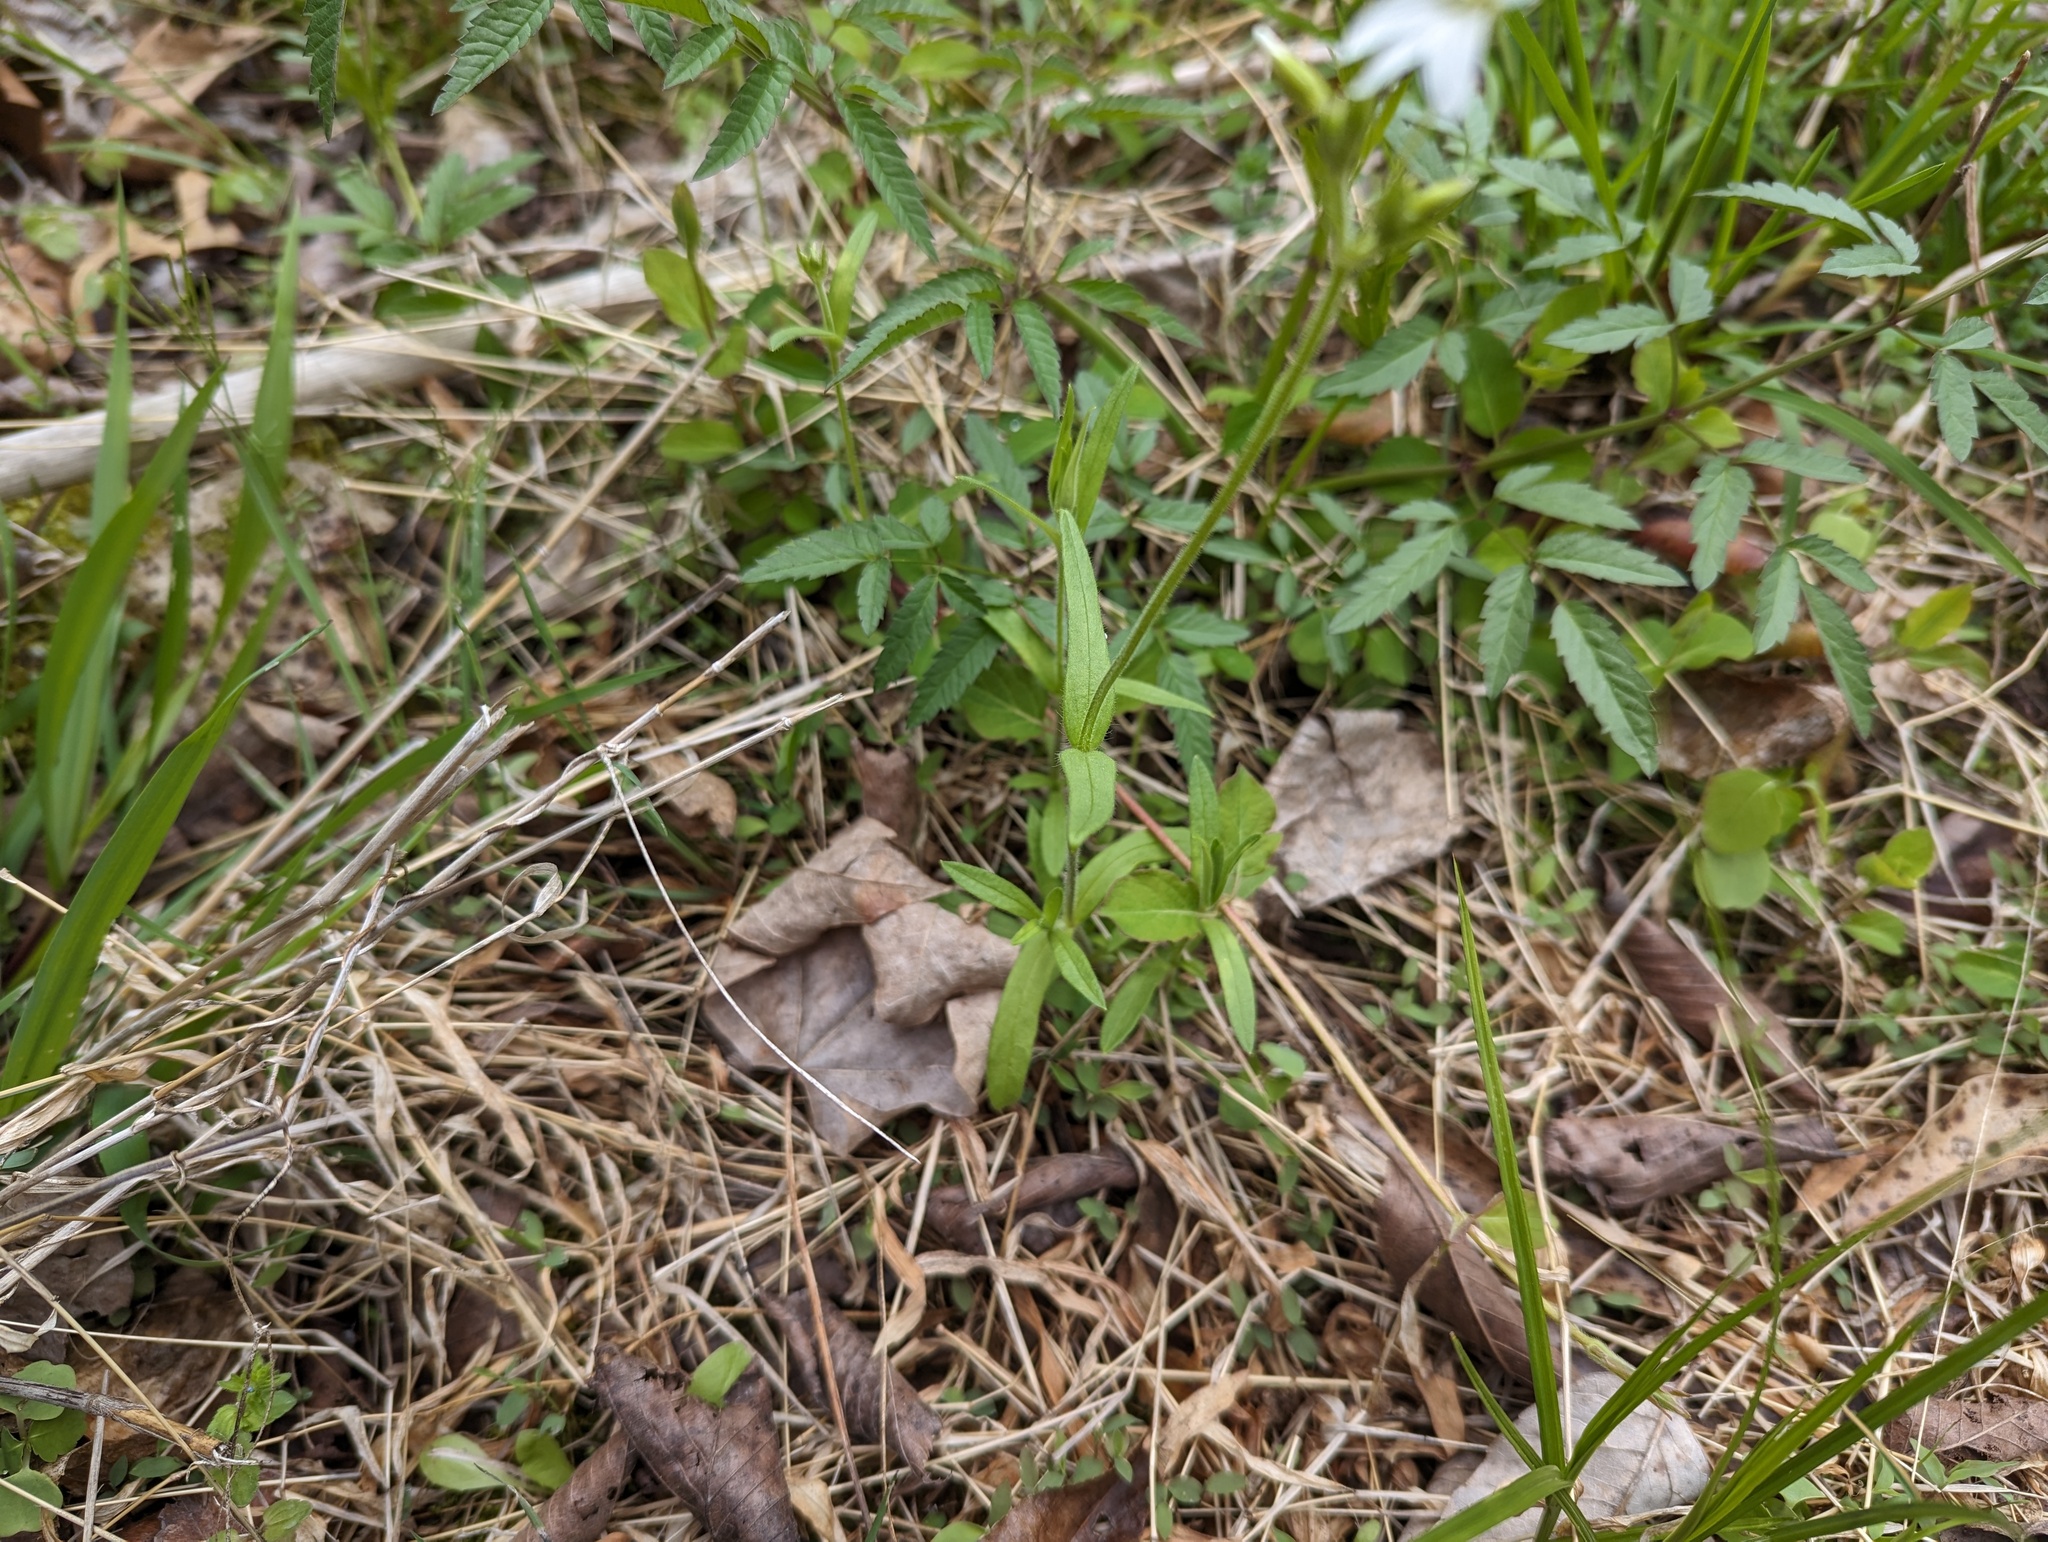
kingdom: Plantae
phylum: Tracheophyta
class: Magnoliopsida
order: Caryophyllales
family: Caryophyllaceae
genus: Cerastium
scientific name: Cerastium velutinum
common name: Barren chickweed
